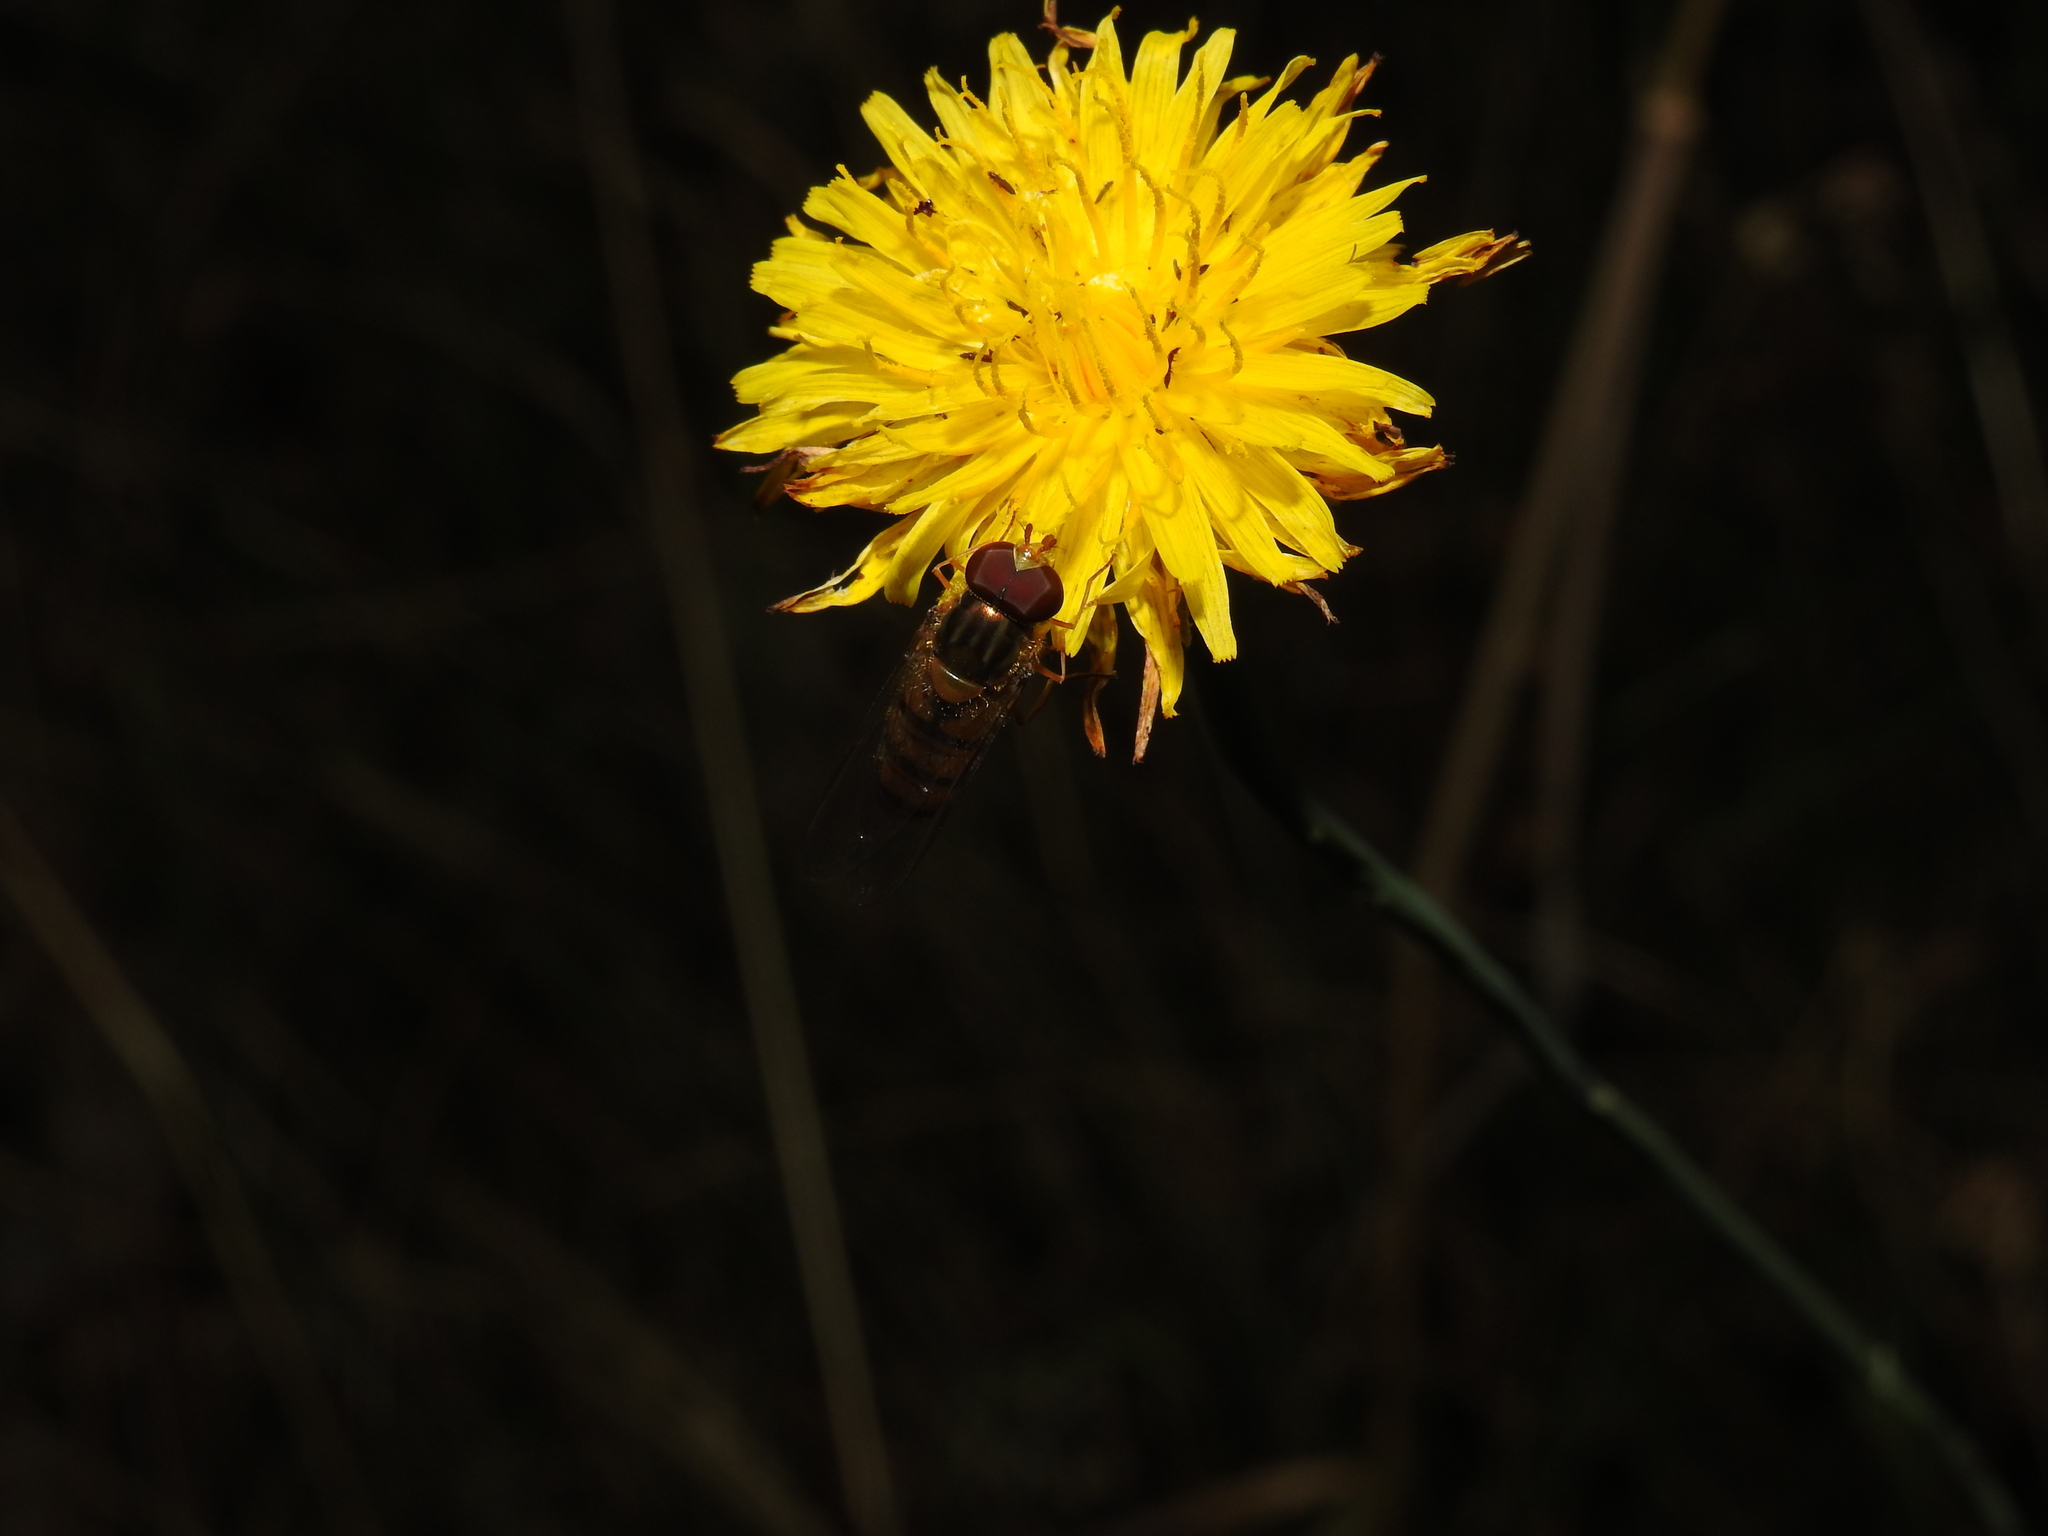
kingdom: Animalia
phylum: Arthropoda
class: Insecta
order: Diptera
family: Syrphidae
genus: Episyrphus
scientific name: Episyrphus balteatus
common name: Marmalade hoverfly
